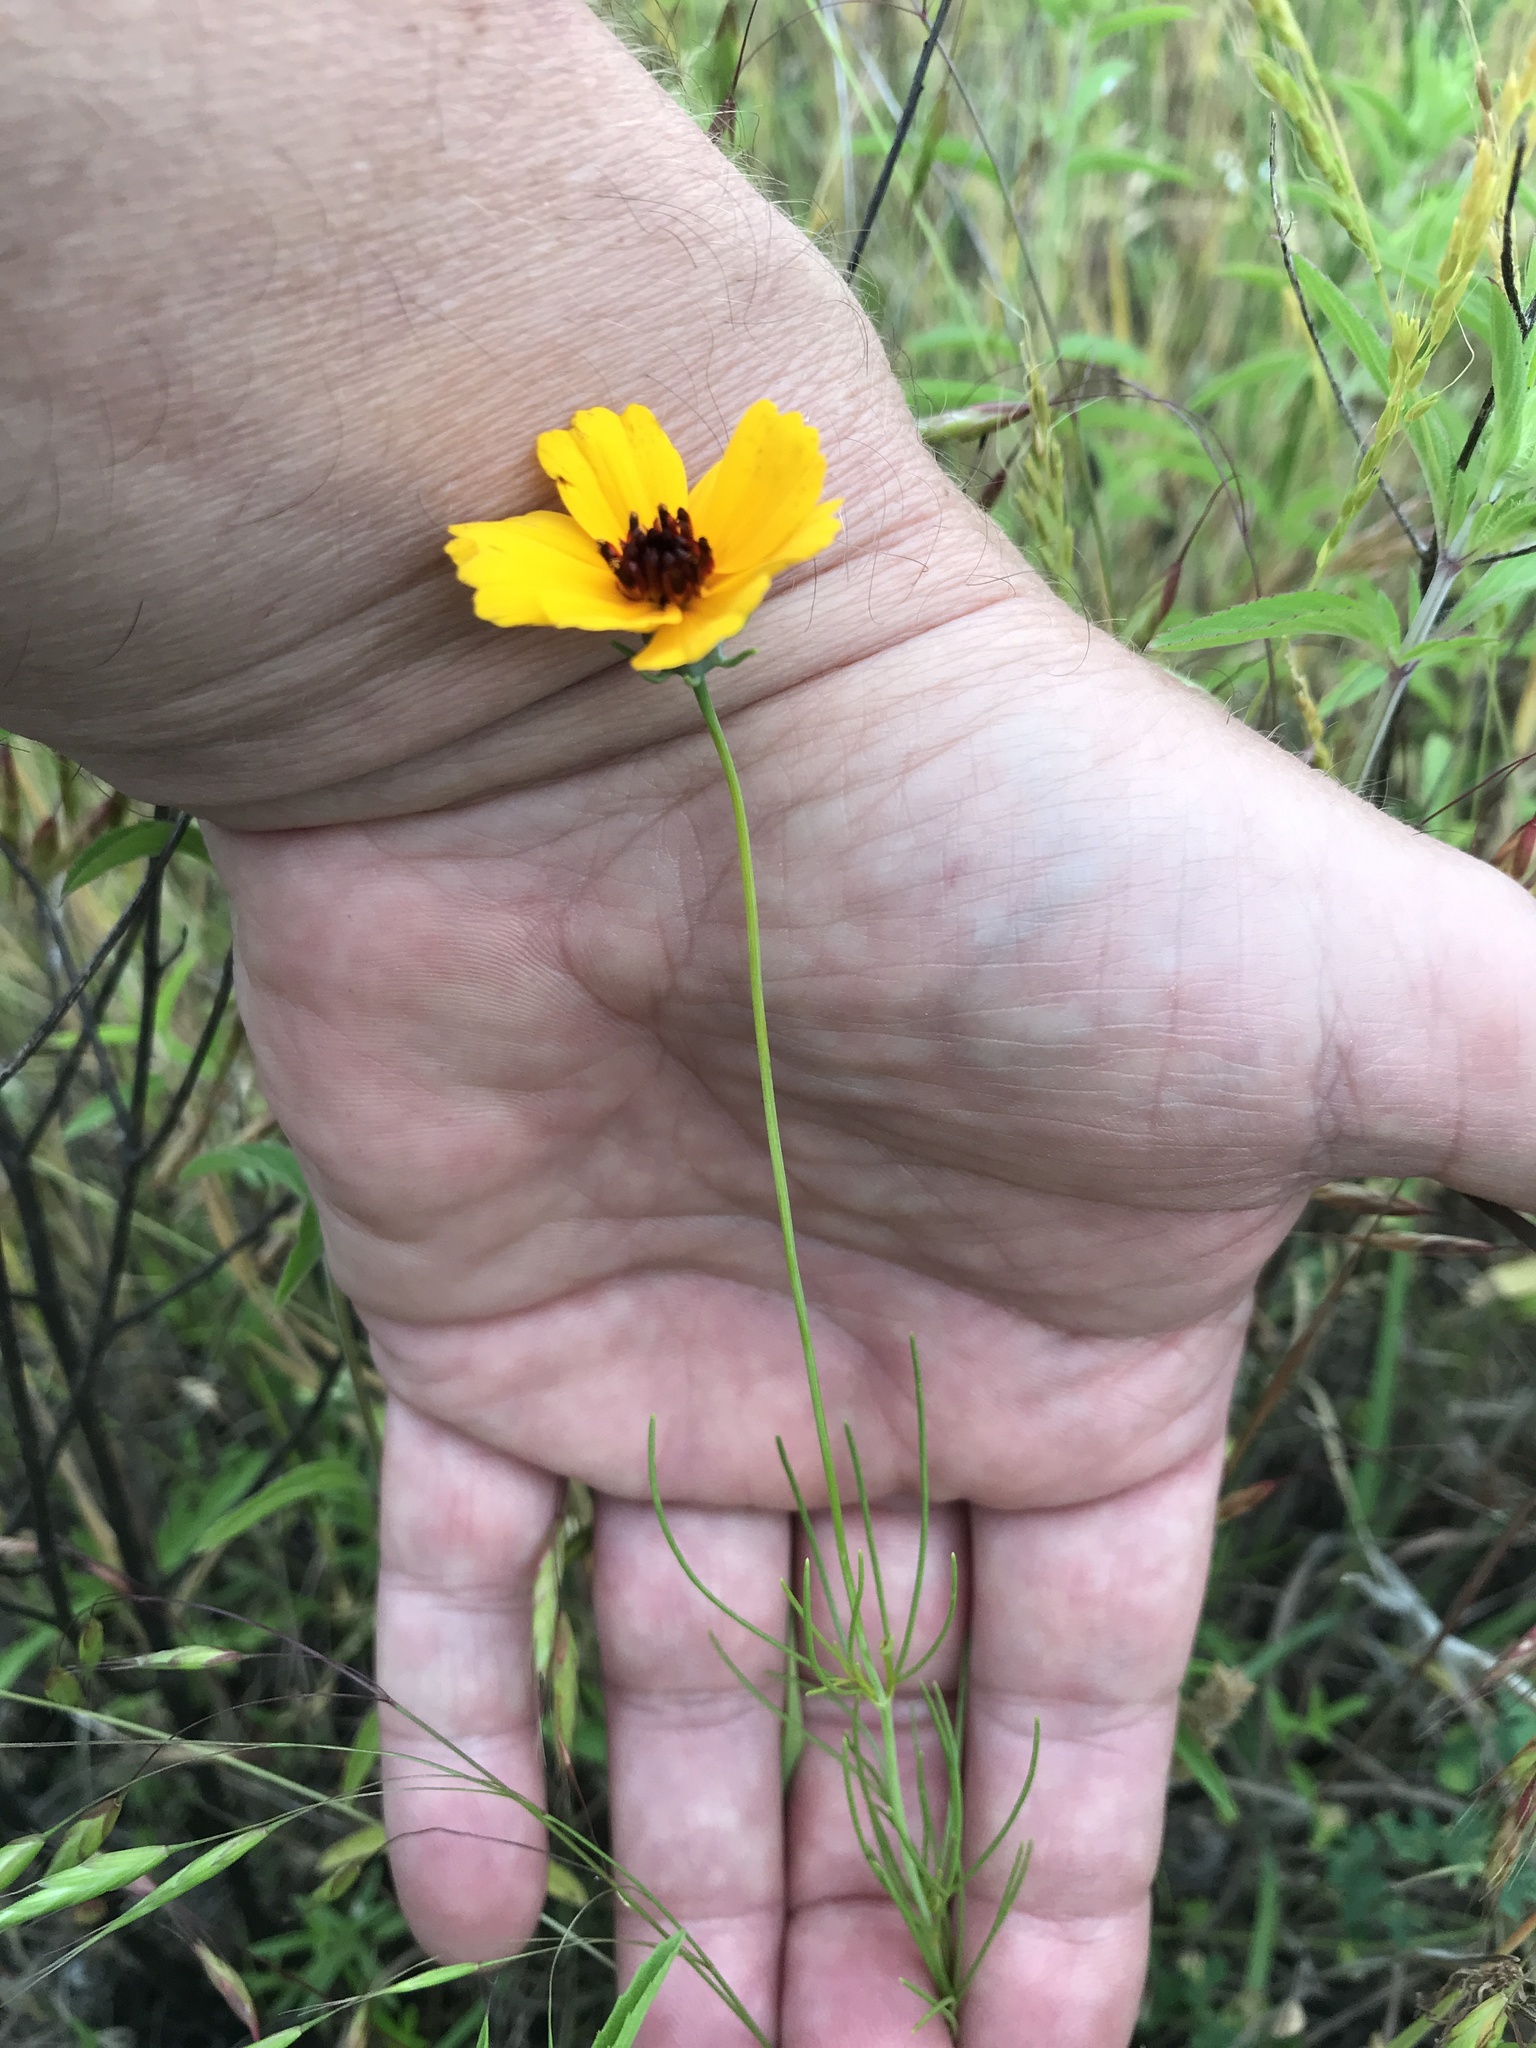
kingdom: Plantae
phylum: Tracheophyta
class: Magnoliopsida
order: Asterales
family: Asteraceae
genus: Thelesperma
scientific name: Thelesperma filifolium
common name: Stiff greenthread
